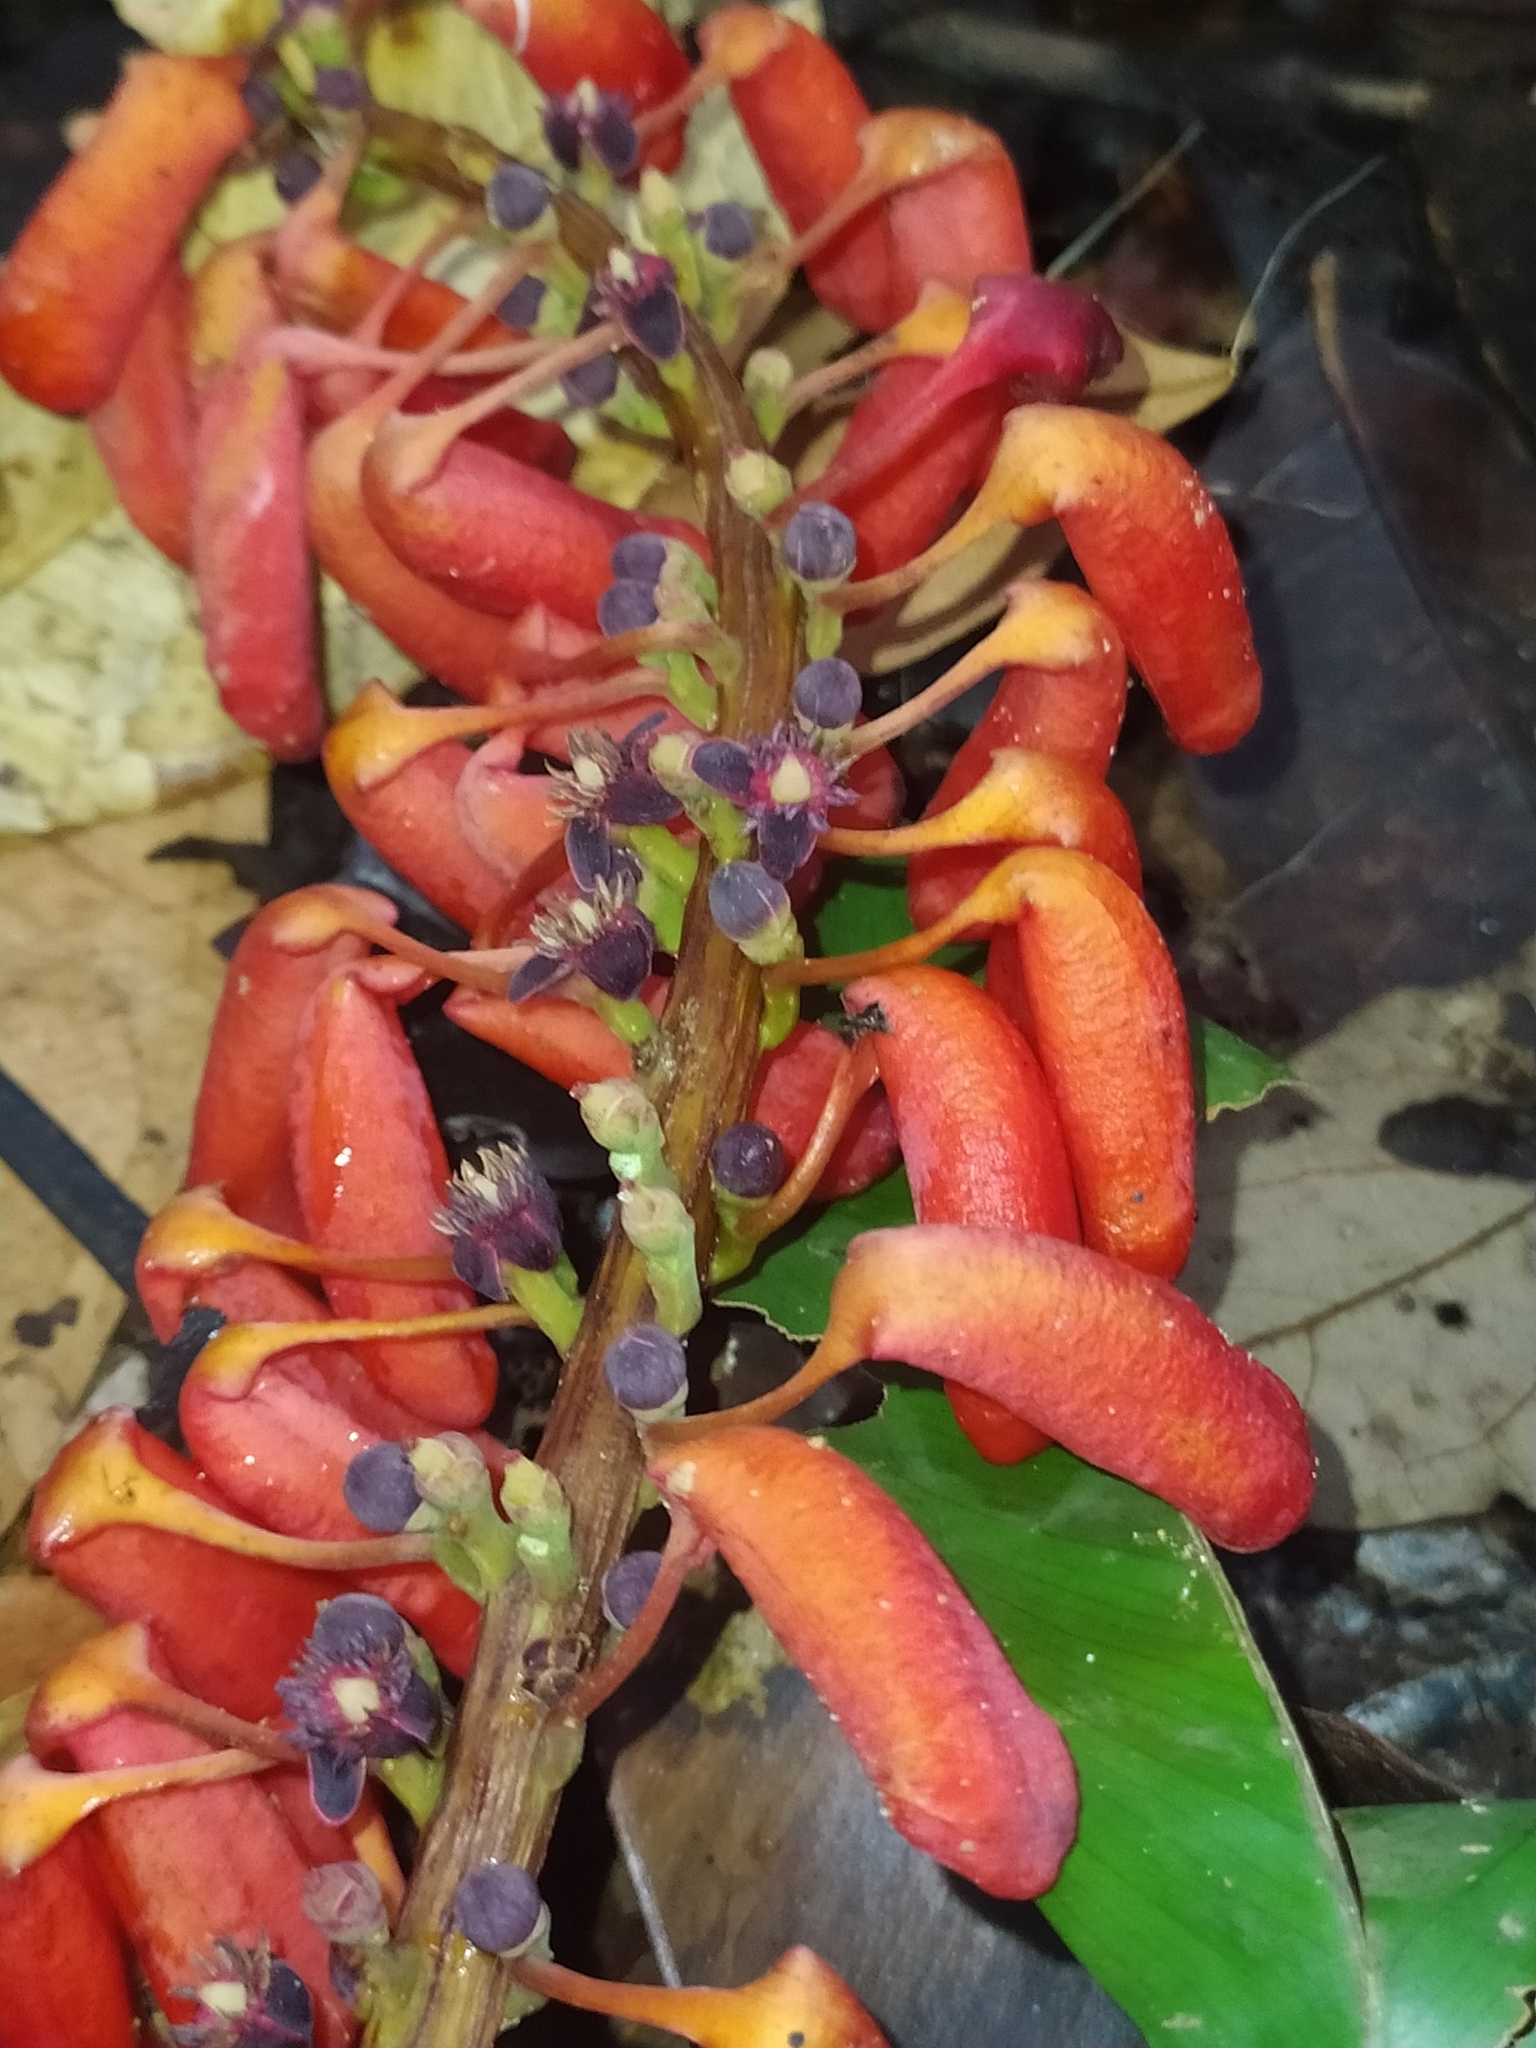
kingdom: Plantae
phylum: Tracheophyta
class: Magnoliopsida
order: Ericales
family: Marcgraviaceae
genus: Norantea
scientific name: Norantea guianensis
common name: Red hot poker vine
